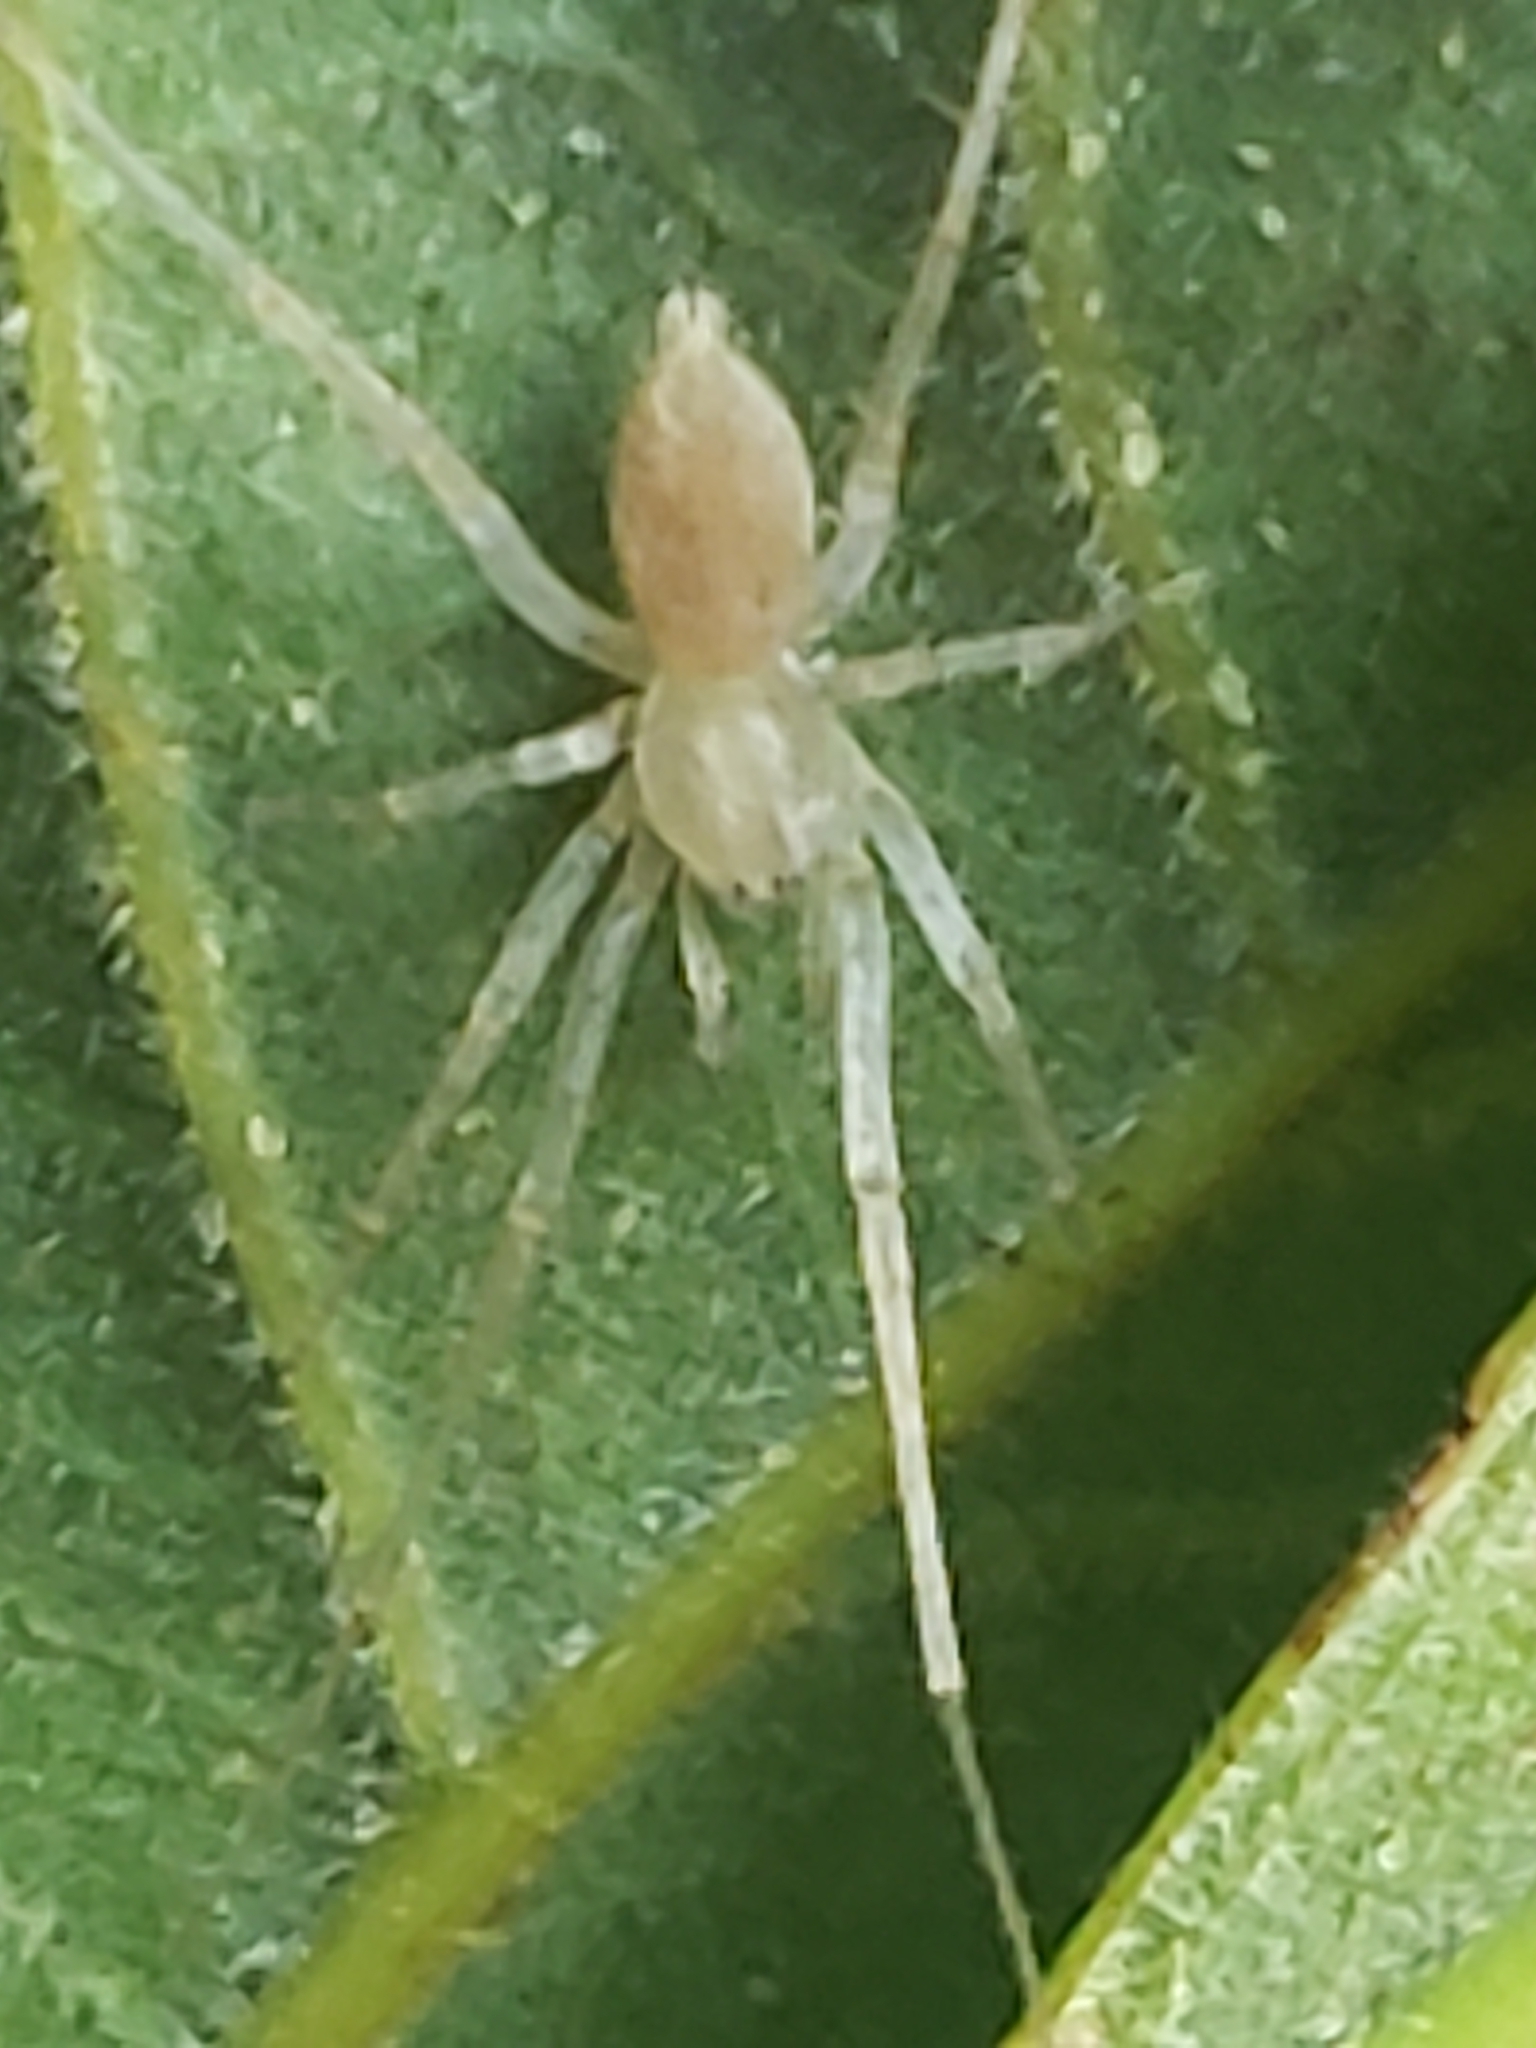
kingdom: Animalia
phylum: Arthropoda
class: Arachnida
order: Araneae
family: Anyphaenidae
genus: Wulfila
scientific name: Wulfila saltabundus
